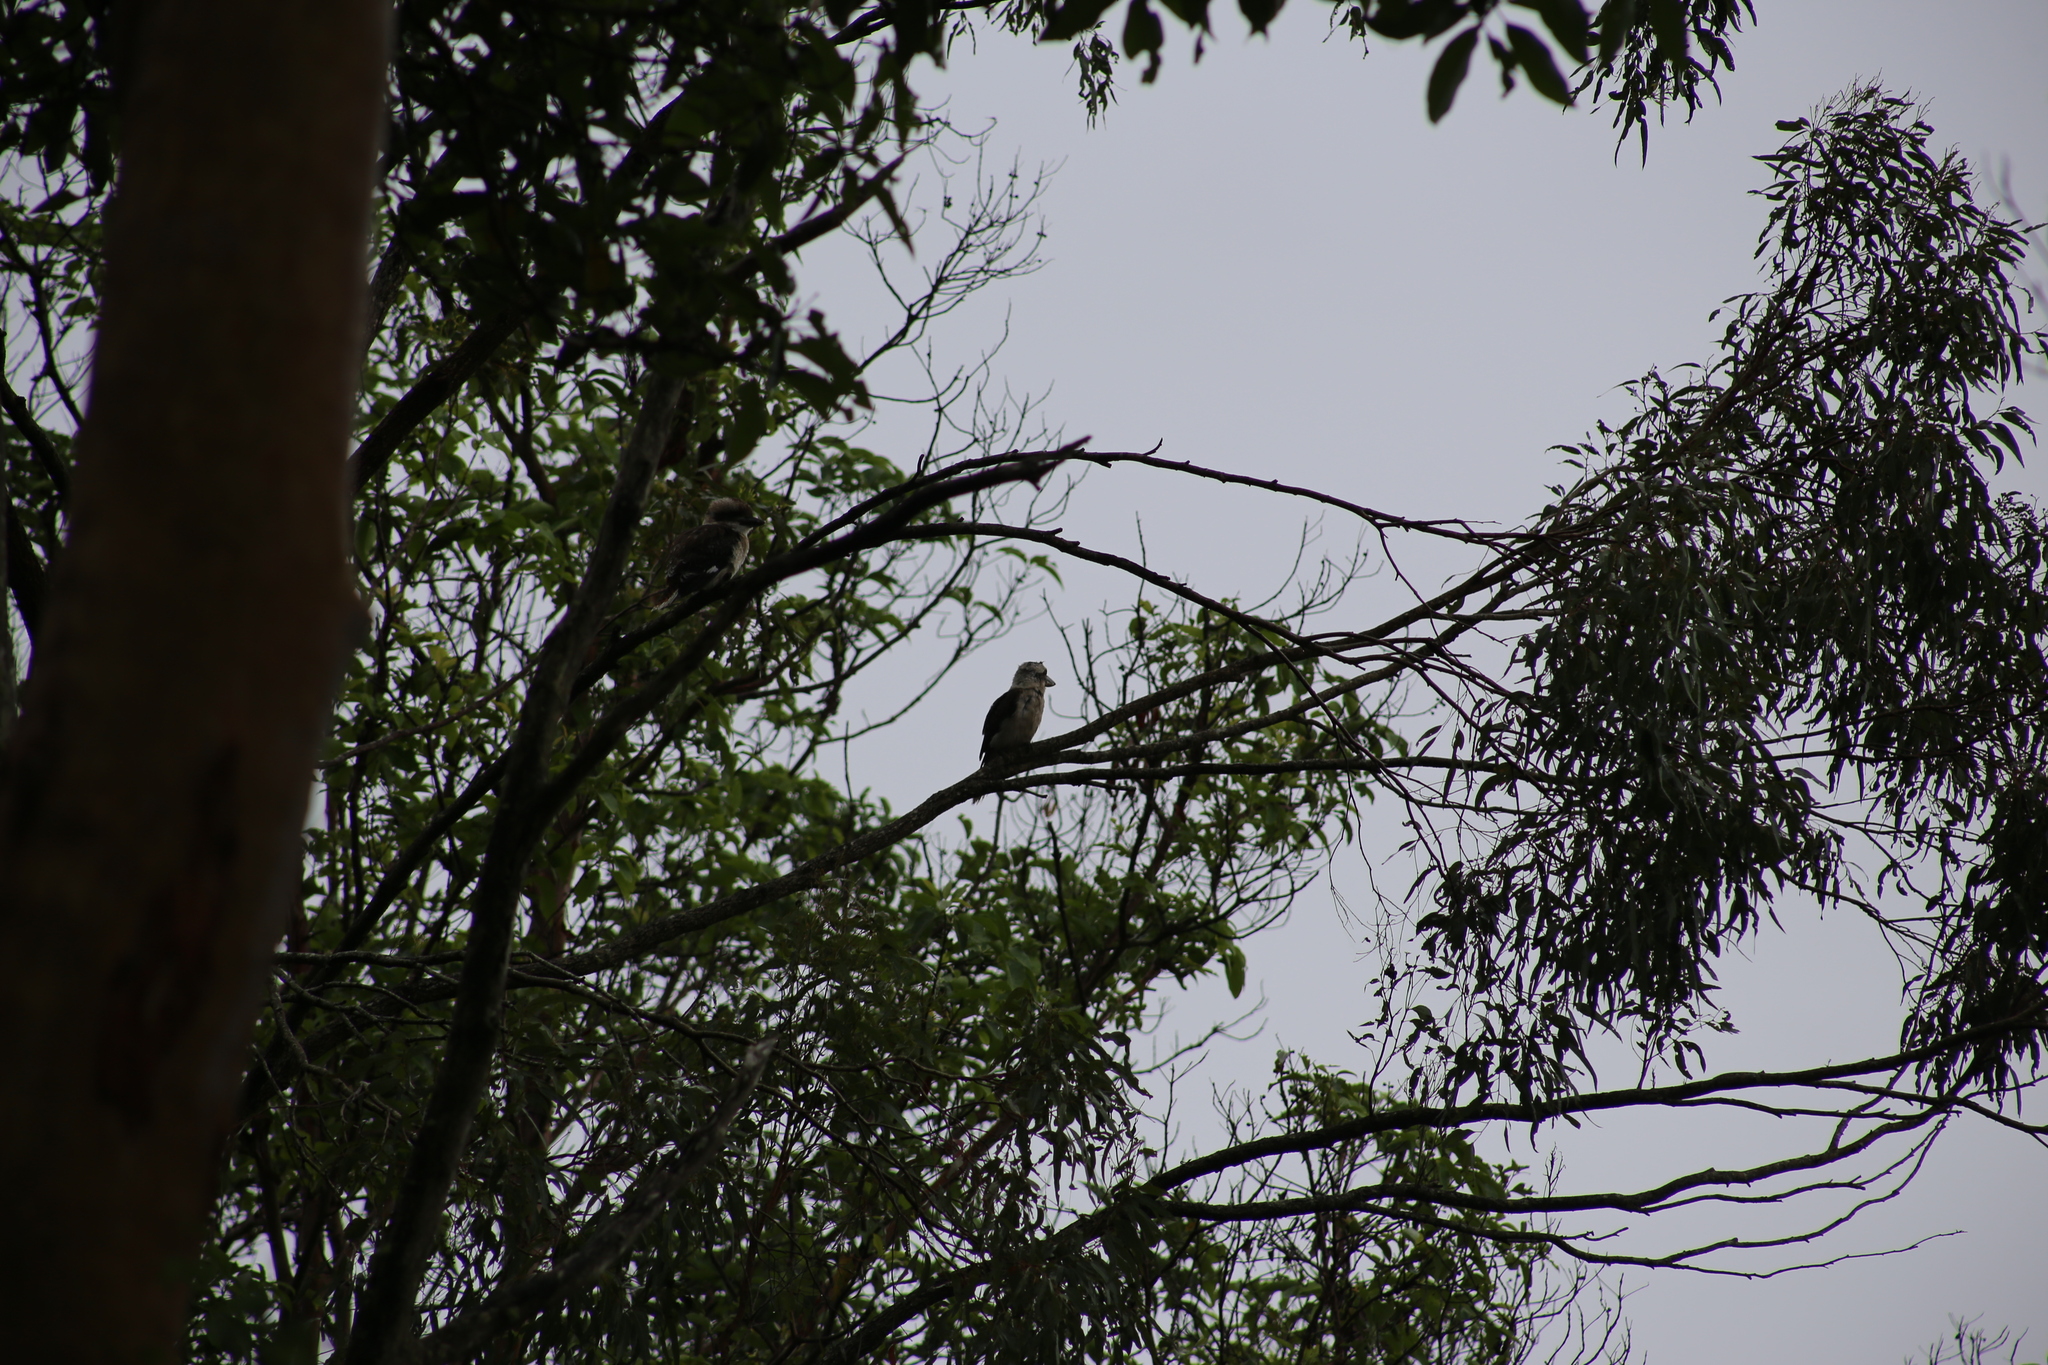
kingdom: Animalia
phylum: Chordata
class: Aves
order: Coraciiformes
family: Alcedinidae
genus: Dacelo
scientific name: Dacelo novaeguineae
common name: Laughing kookaburra
